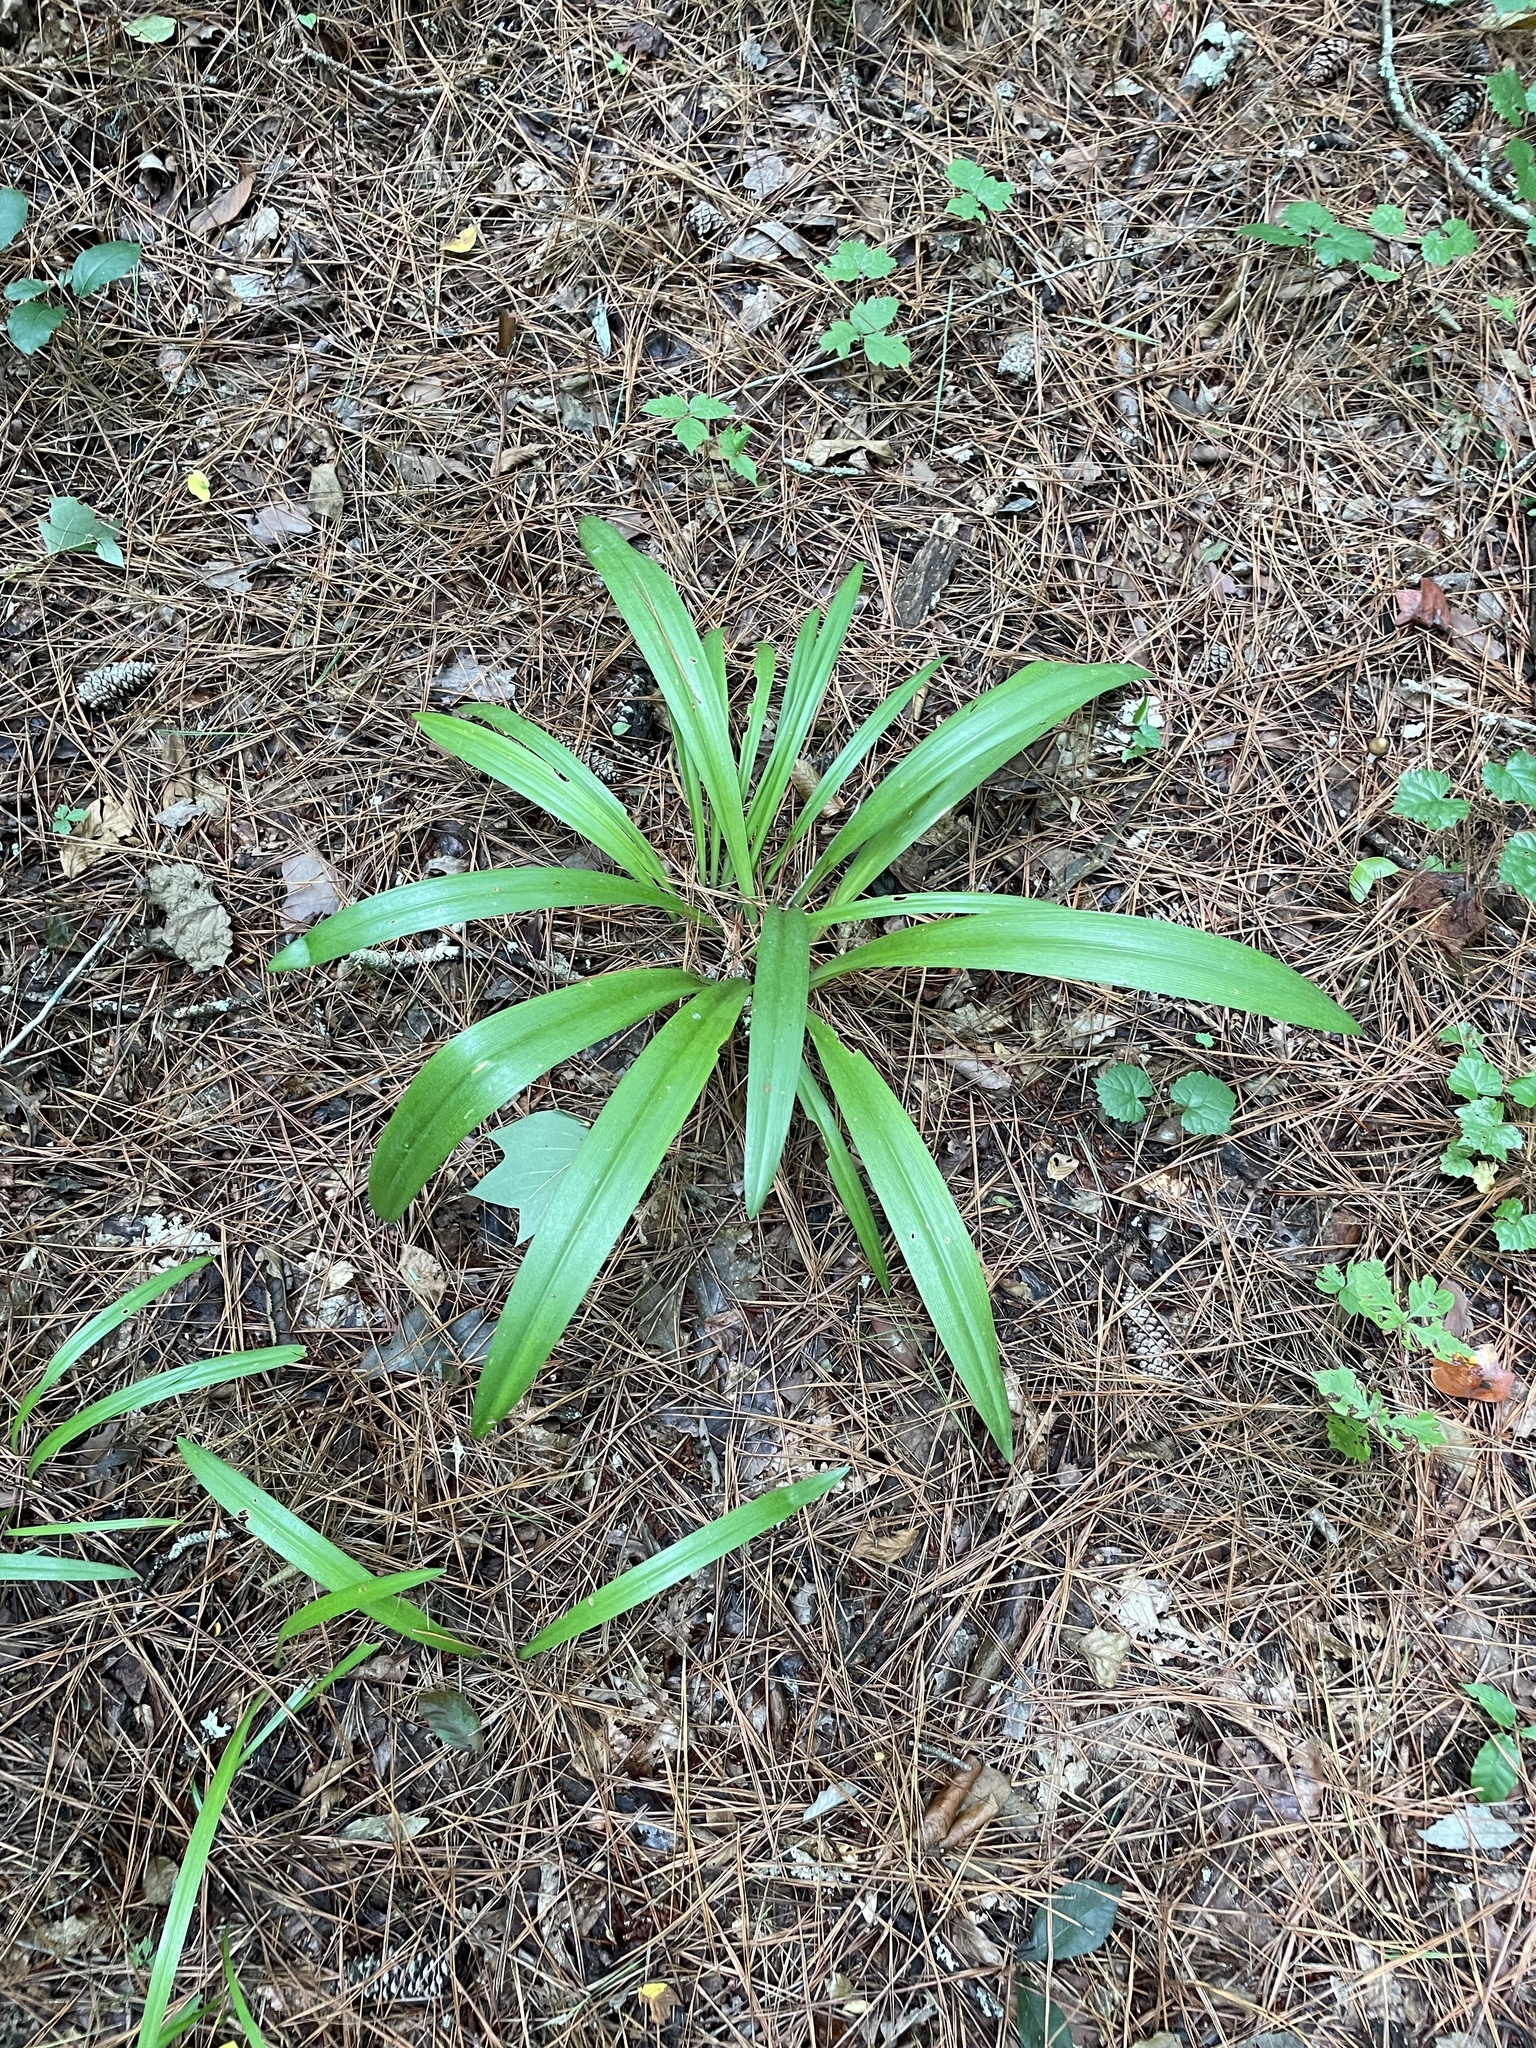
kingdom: Plantae
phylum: Tracheophyta
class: Liliopsida
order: Asparagales
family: Amaryllidaceae
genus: Hymenocallis
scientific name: Hymenocallis occidentalis
